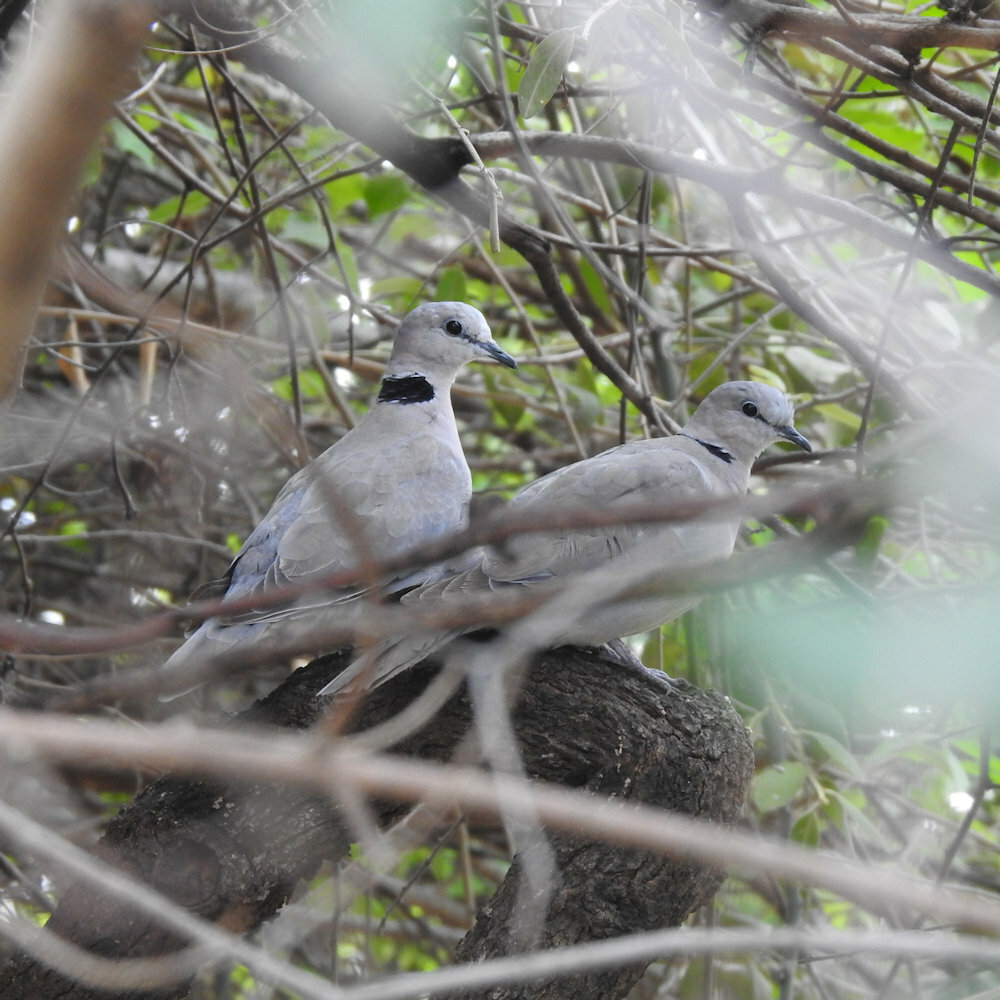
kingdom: Animalia
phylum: Chordata
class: Aves
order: Columbiformes
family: Columbidae
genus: Streptopelia
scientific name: Streptopelia capicola
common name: Ring-necked dove
